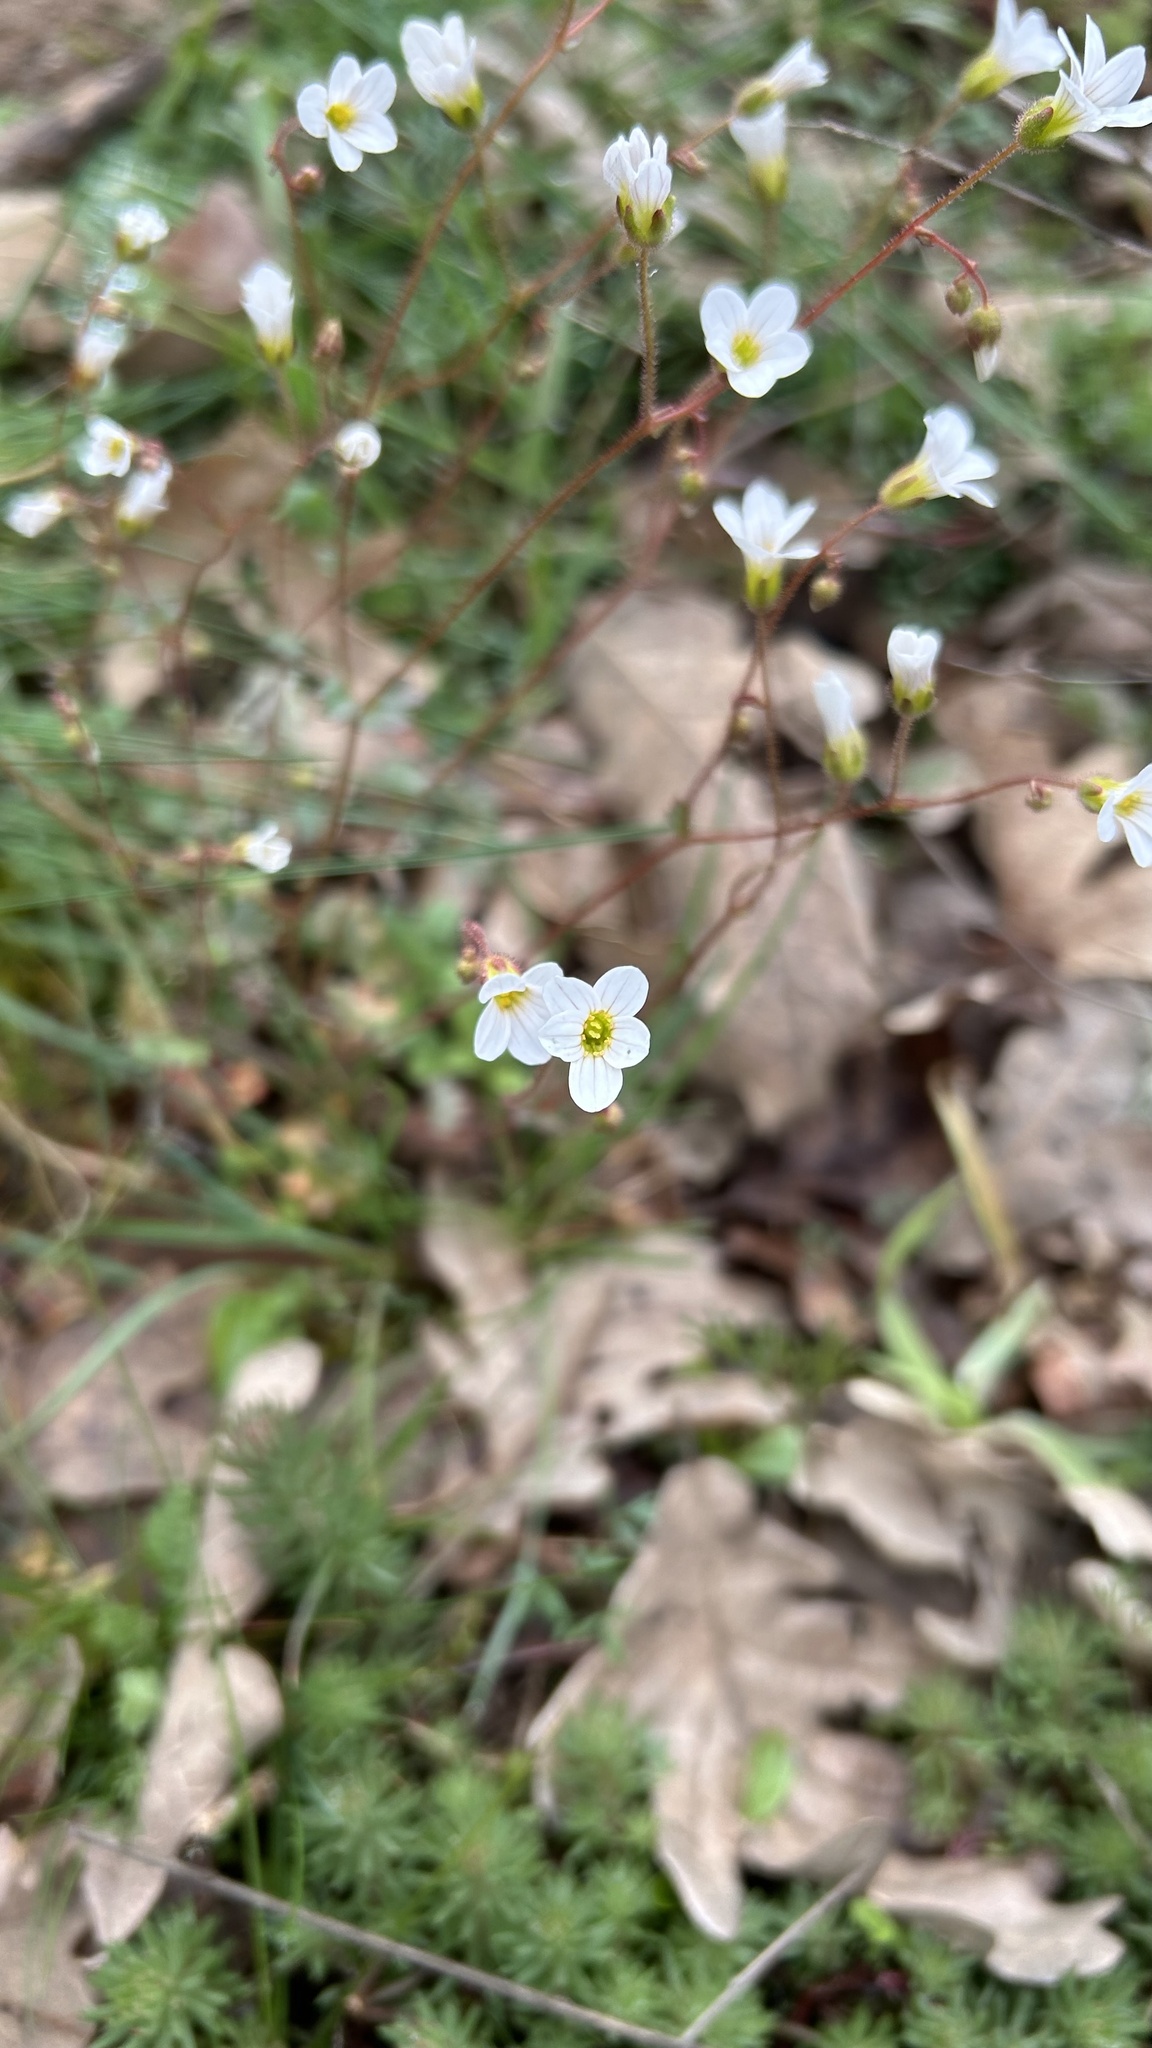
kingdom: Plantae
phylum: Tracheophyta
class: Magnoliopsida
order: Saxifragales
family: Saxifragaceae
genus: Saxifraga
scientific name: Saxifraga granulata
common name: Meadow saxifrage
